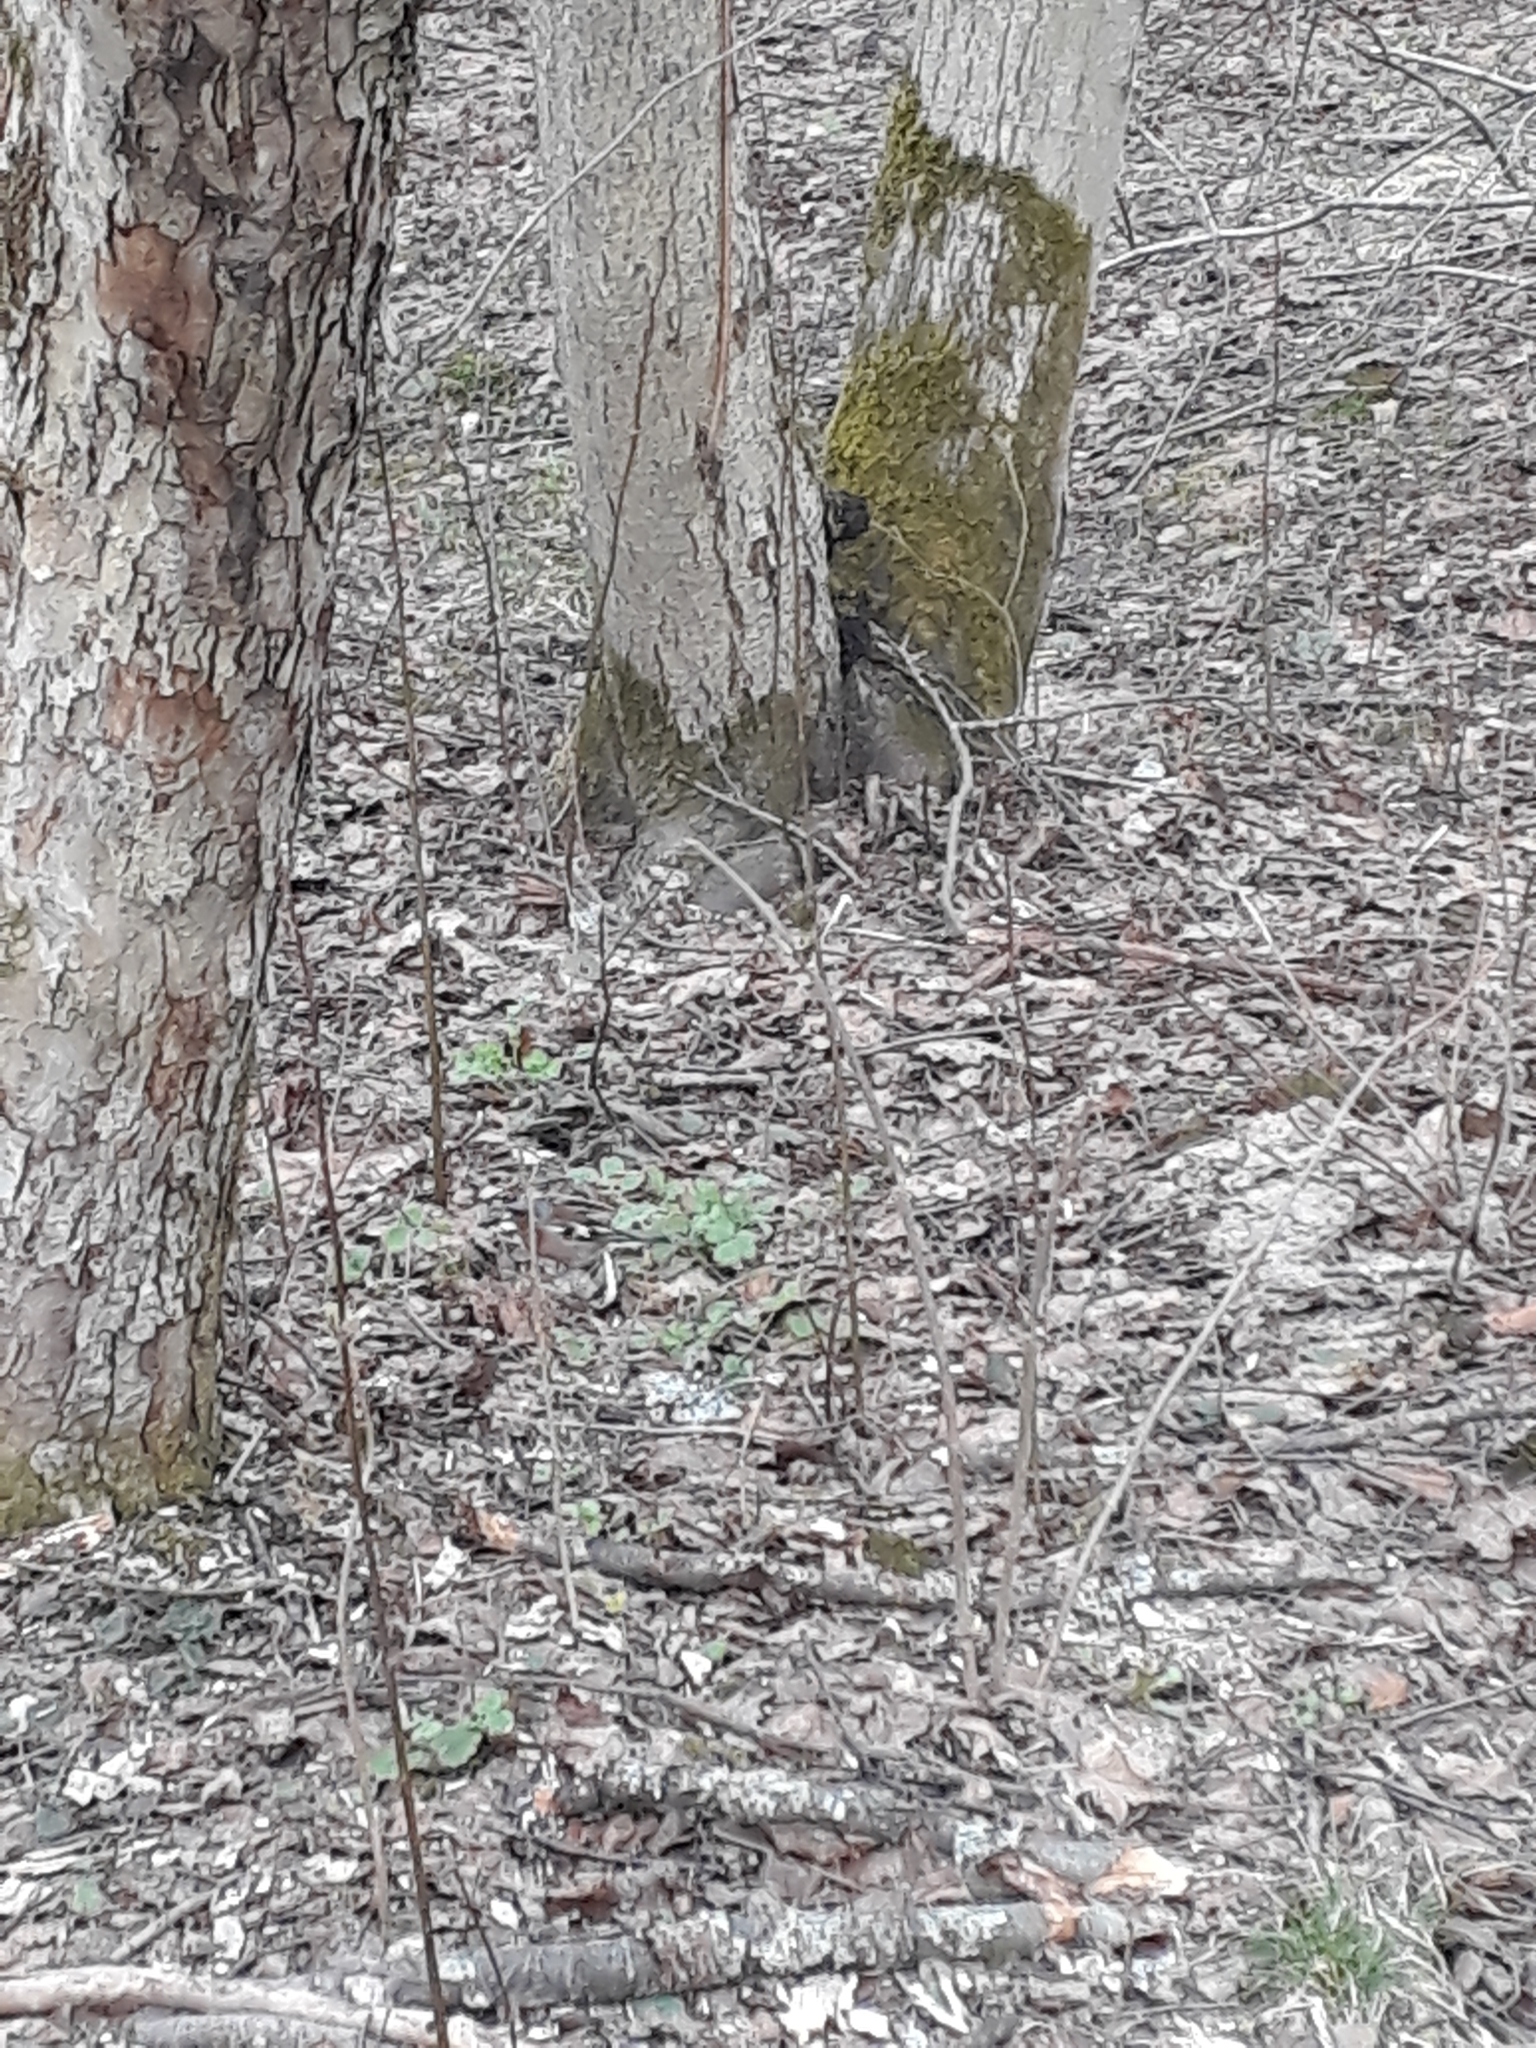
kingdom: Animalia
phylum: Chordata
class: Aves
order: Passeriformes
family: Fringillidae
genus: Fringilla
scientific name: Fringilla coelebs
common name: Common chaffinch
